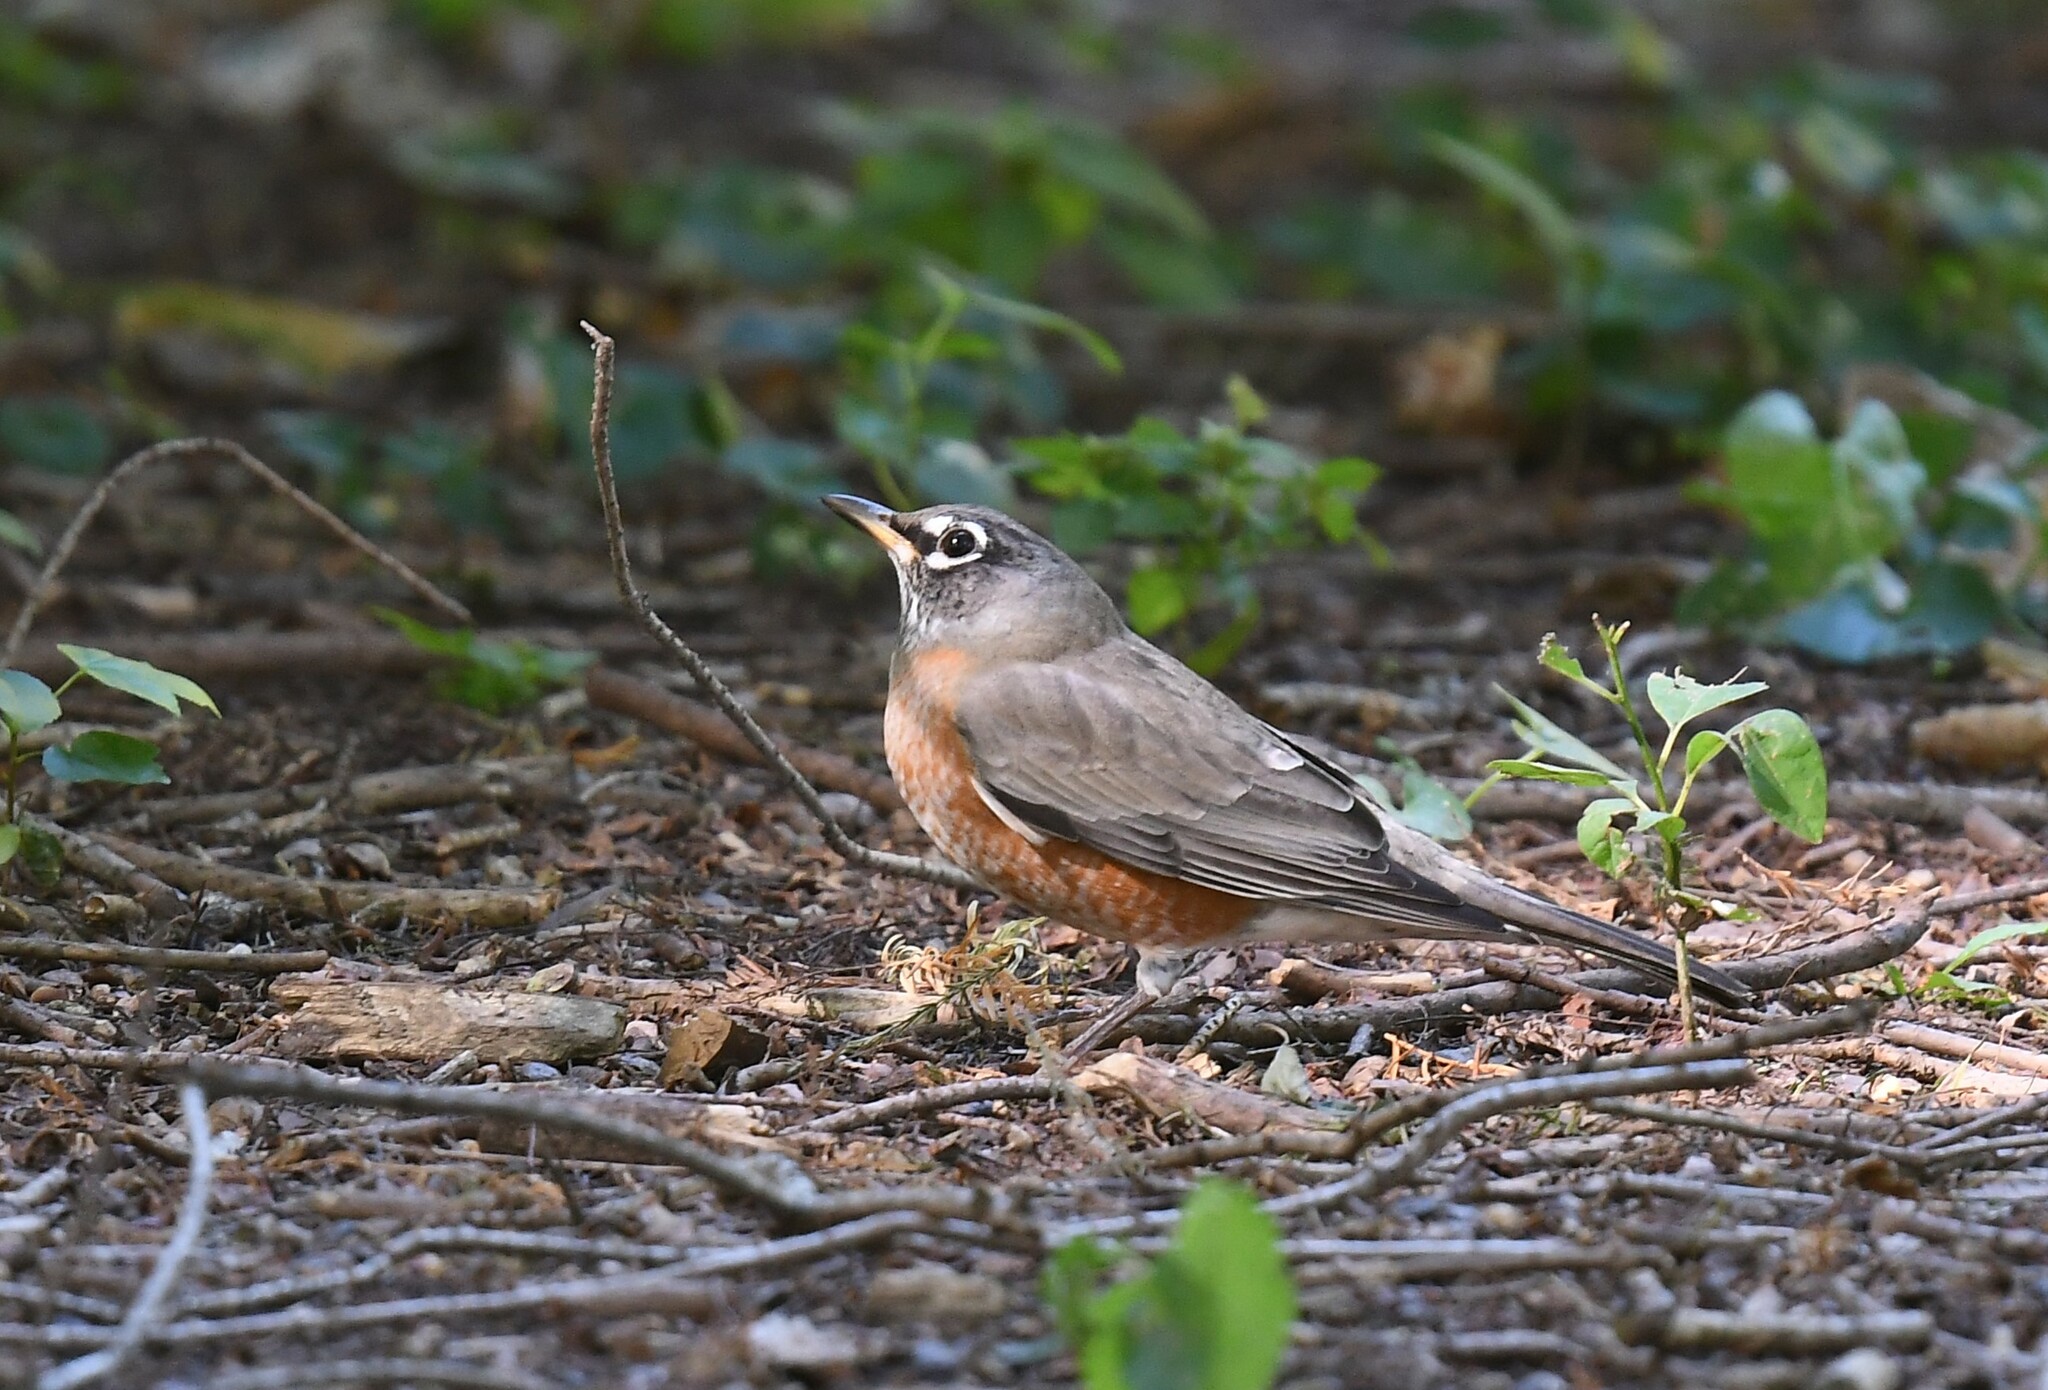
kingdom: Animalia
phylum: Chordata
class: Aves
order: Passeriformes
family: Turdidae
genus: Turdus
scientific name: Turdus migratorius
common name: American robin
